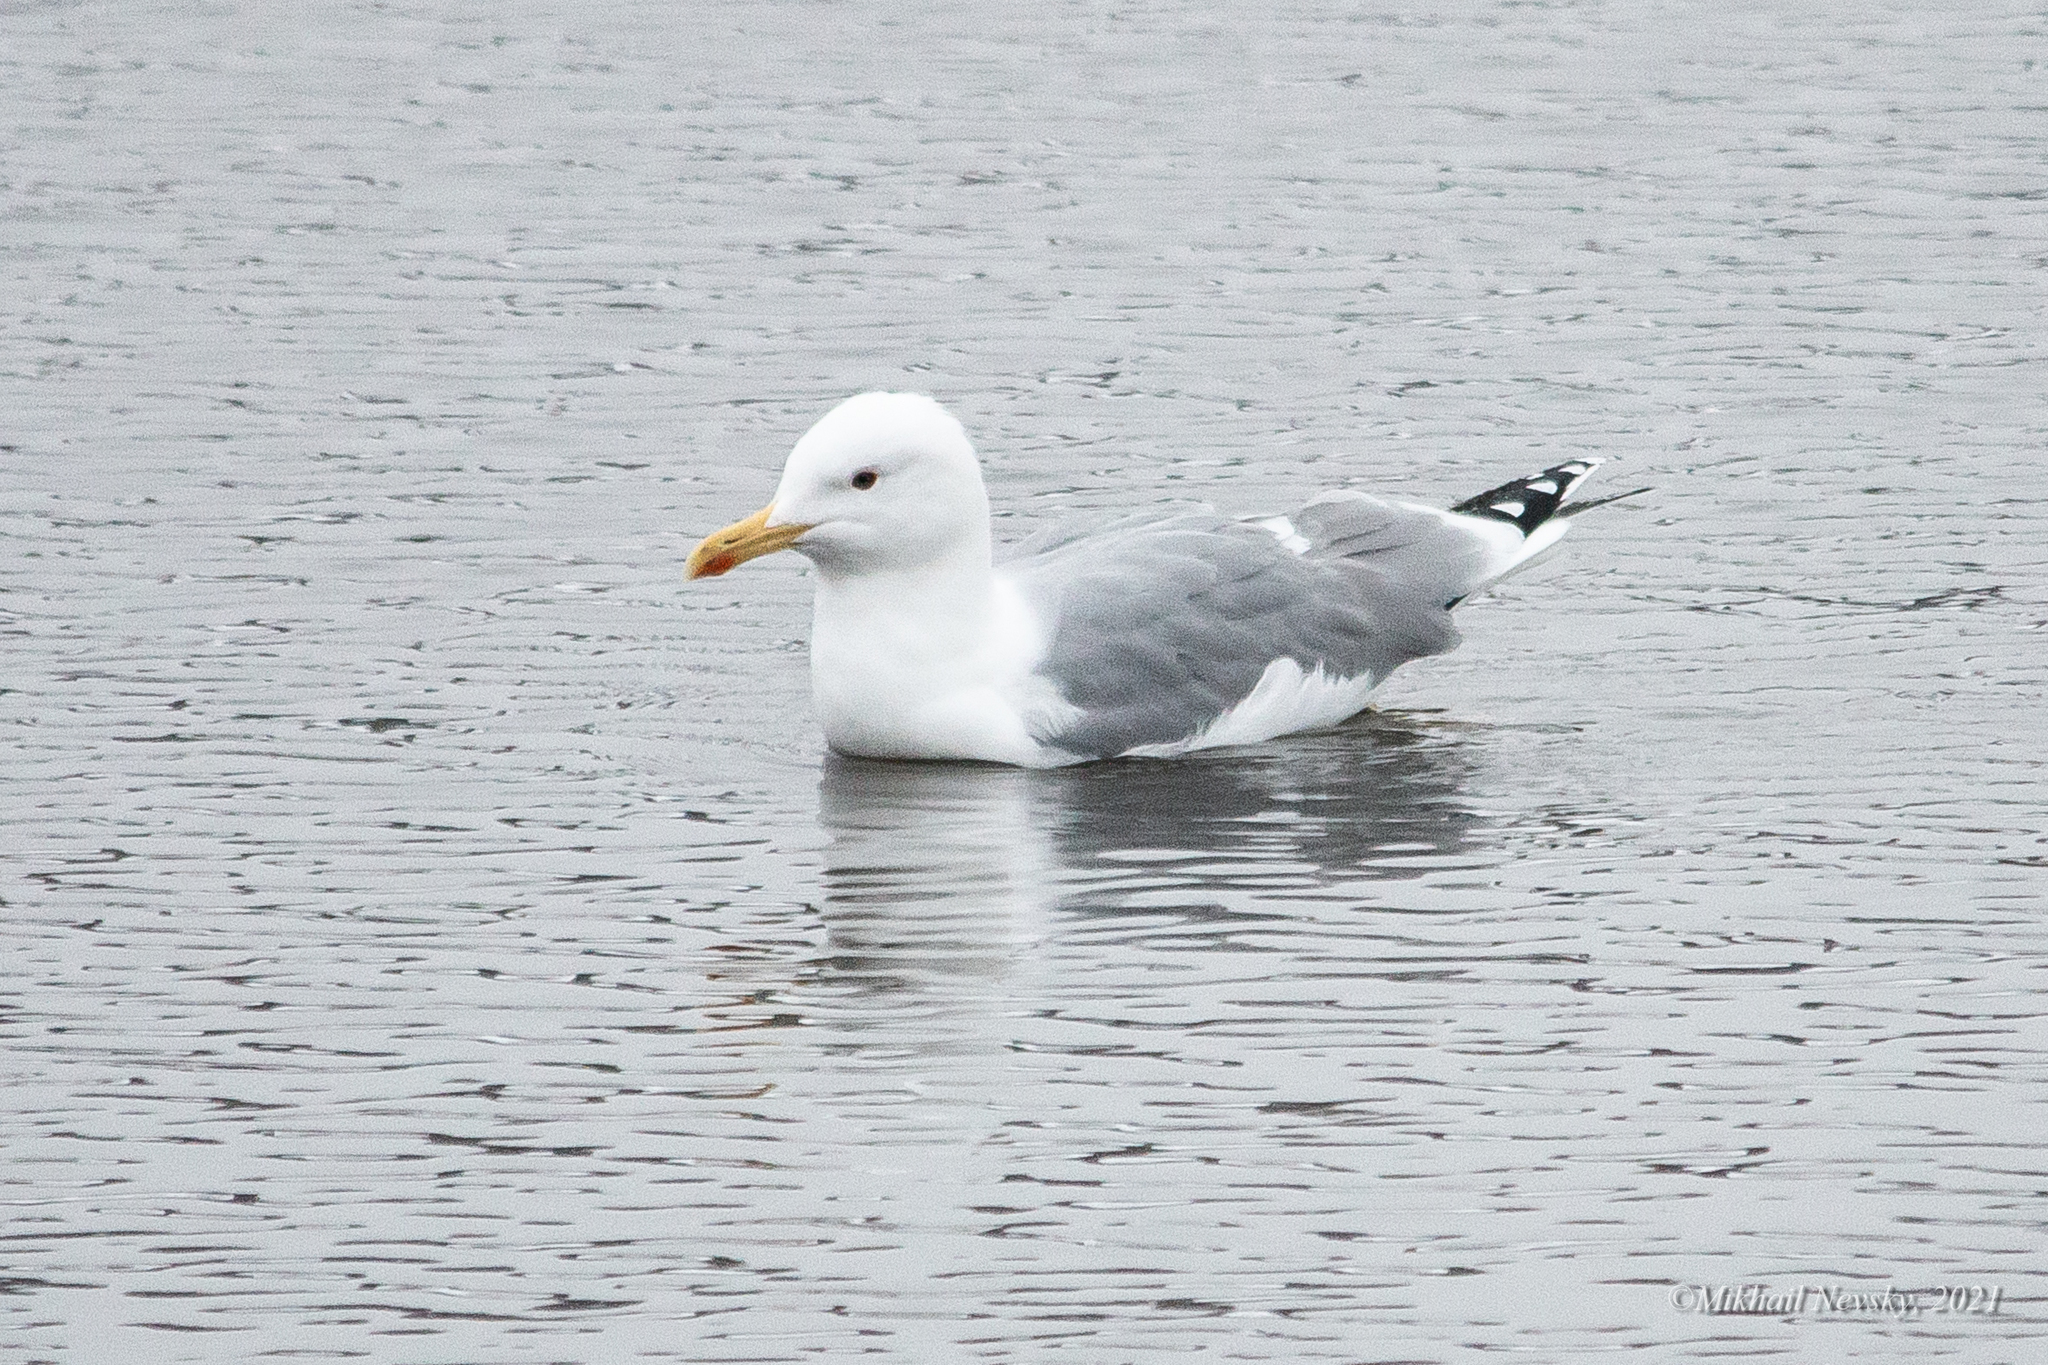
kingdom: Animalia
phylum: Chordata
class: Aves
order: Charadriiformes
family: Laridae
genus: Larus
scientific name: Larus cachinnans
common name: Caspian gull
